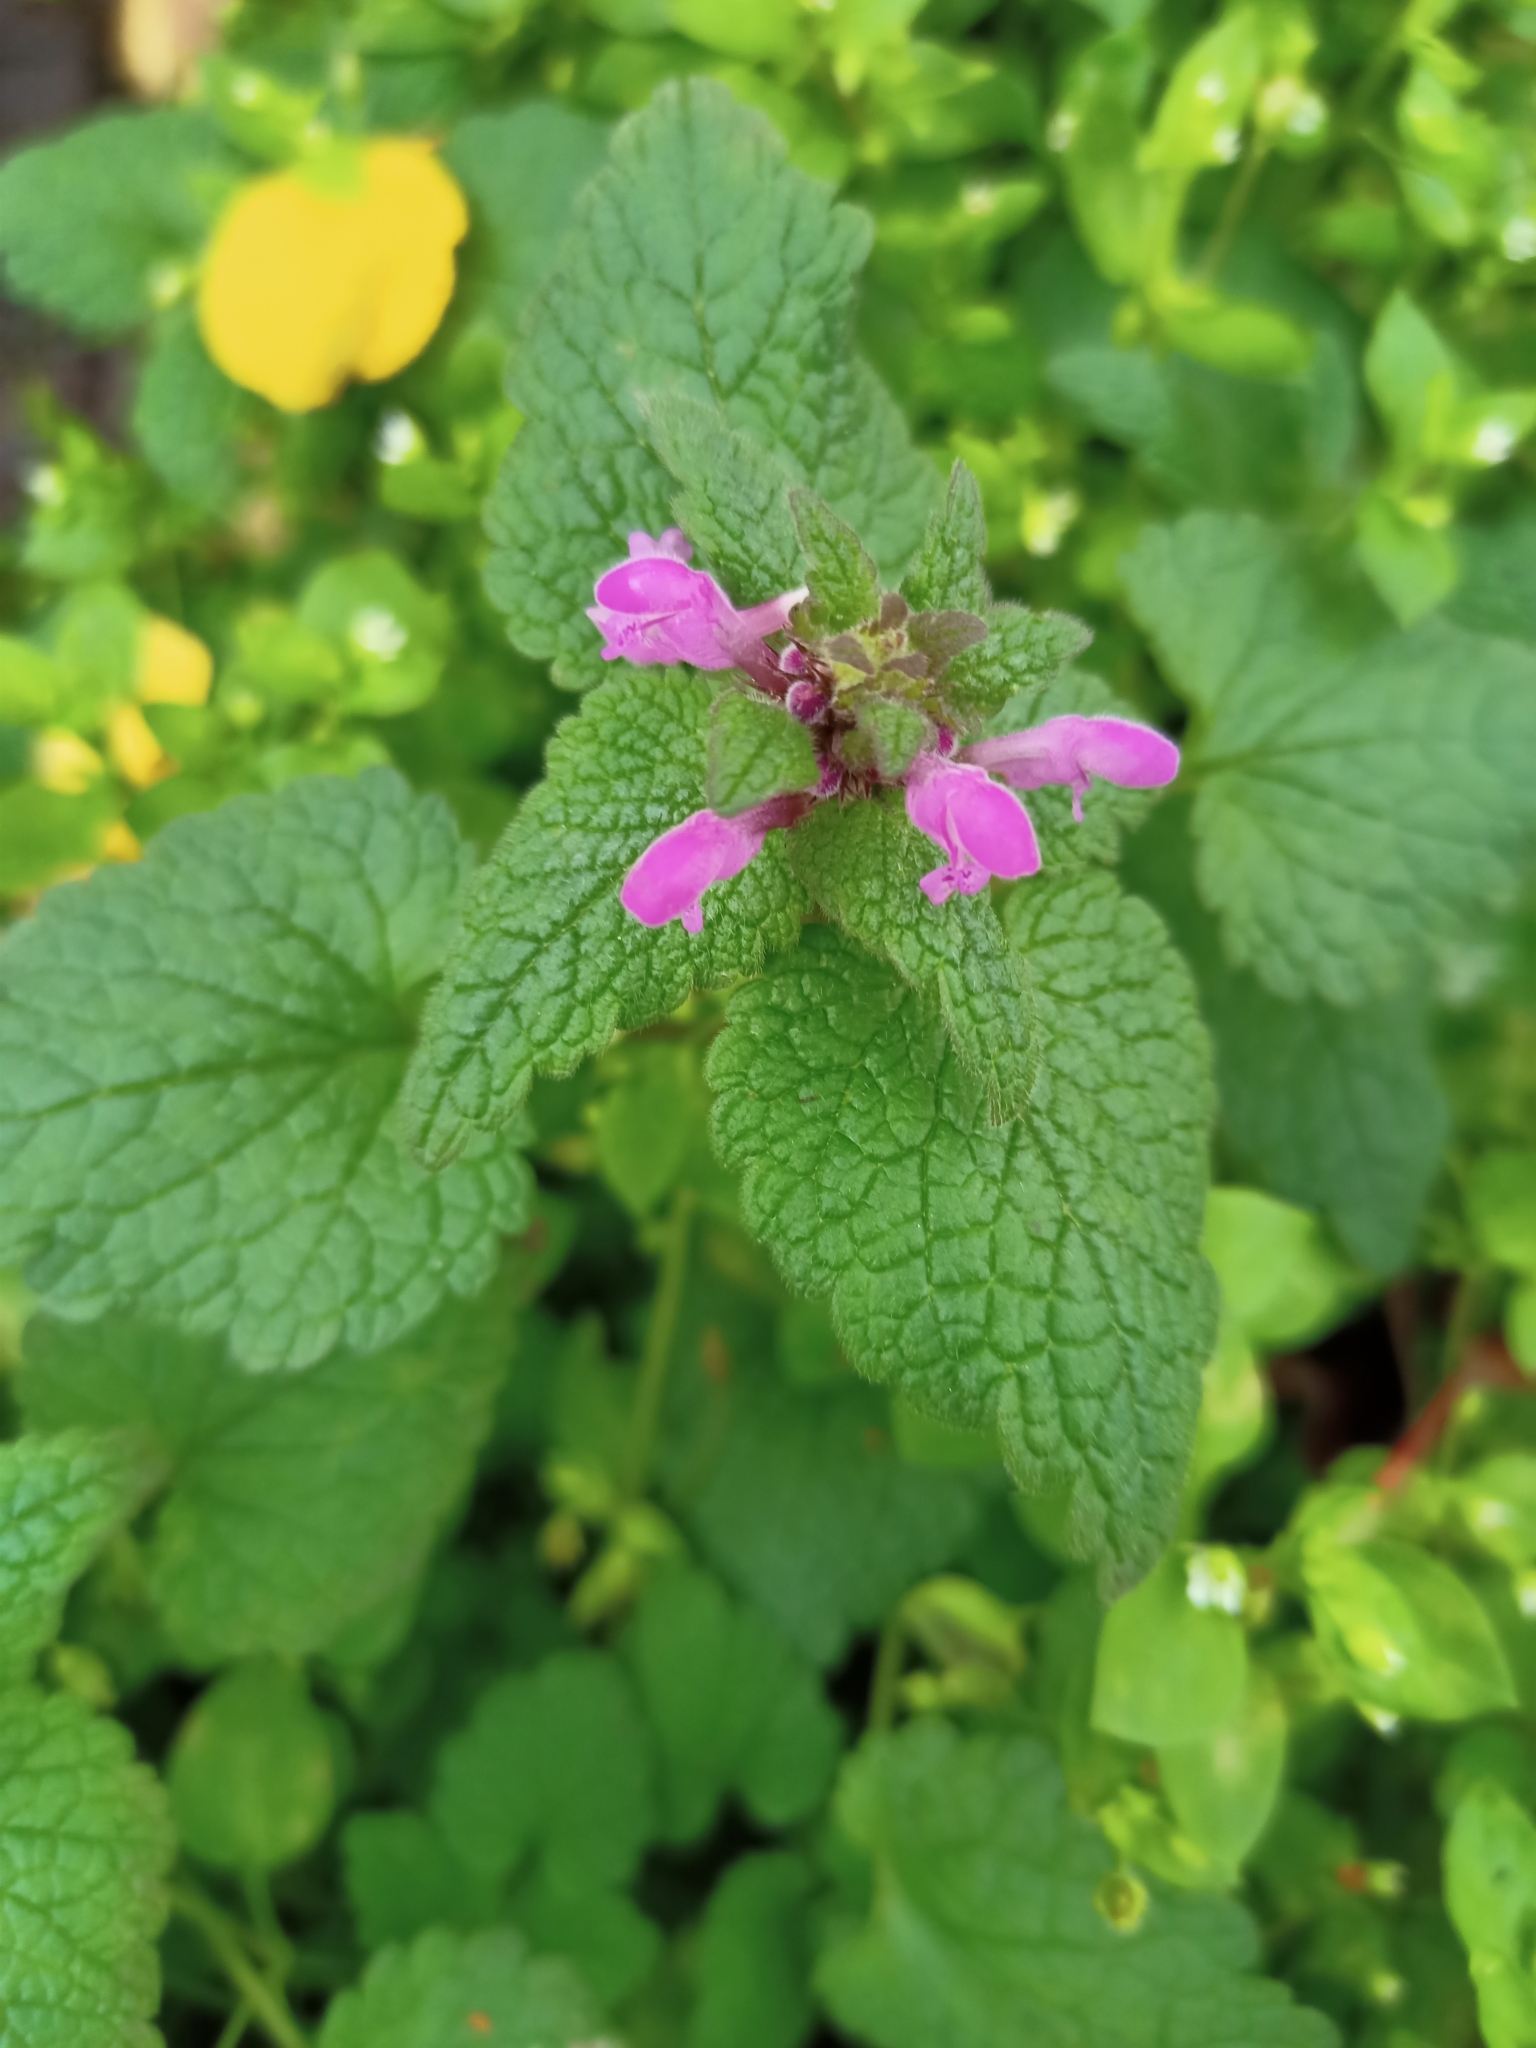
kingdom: Plantae
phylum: Tracheophyta
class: Magnoliopsida
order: Lamiales
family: Lamiaceae
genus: Lamium
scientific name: Lamium purpureum
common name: Red dead-nettle
